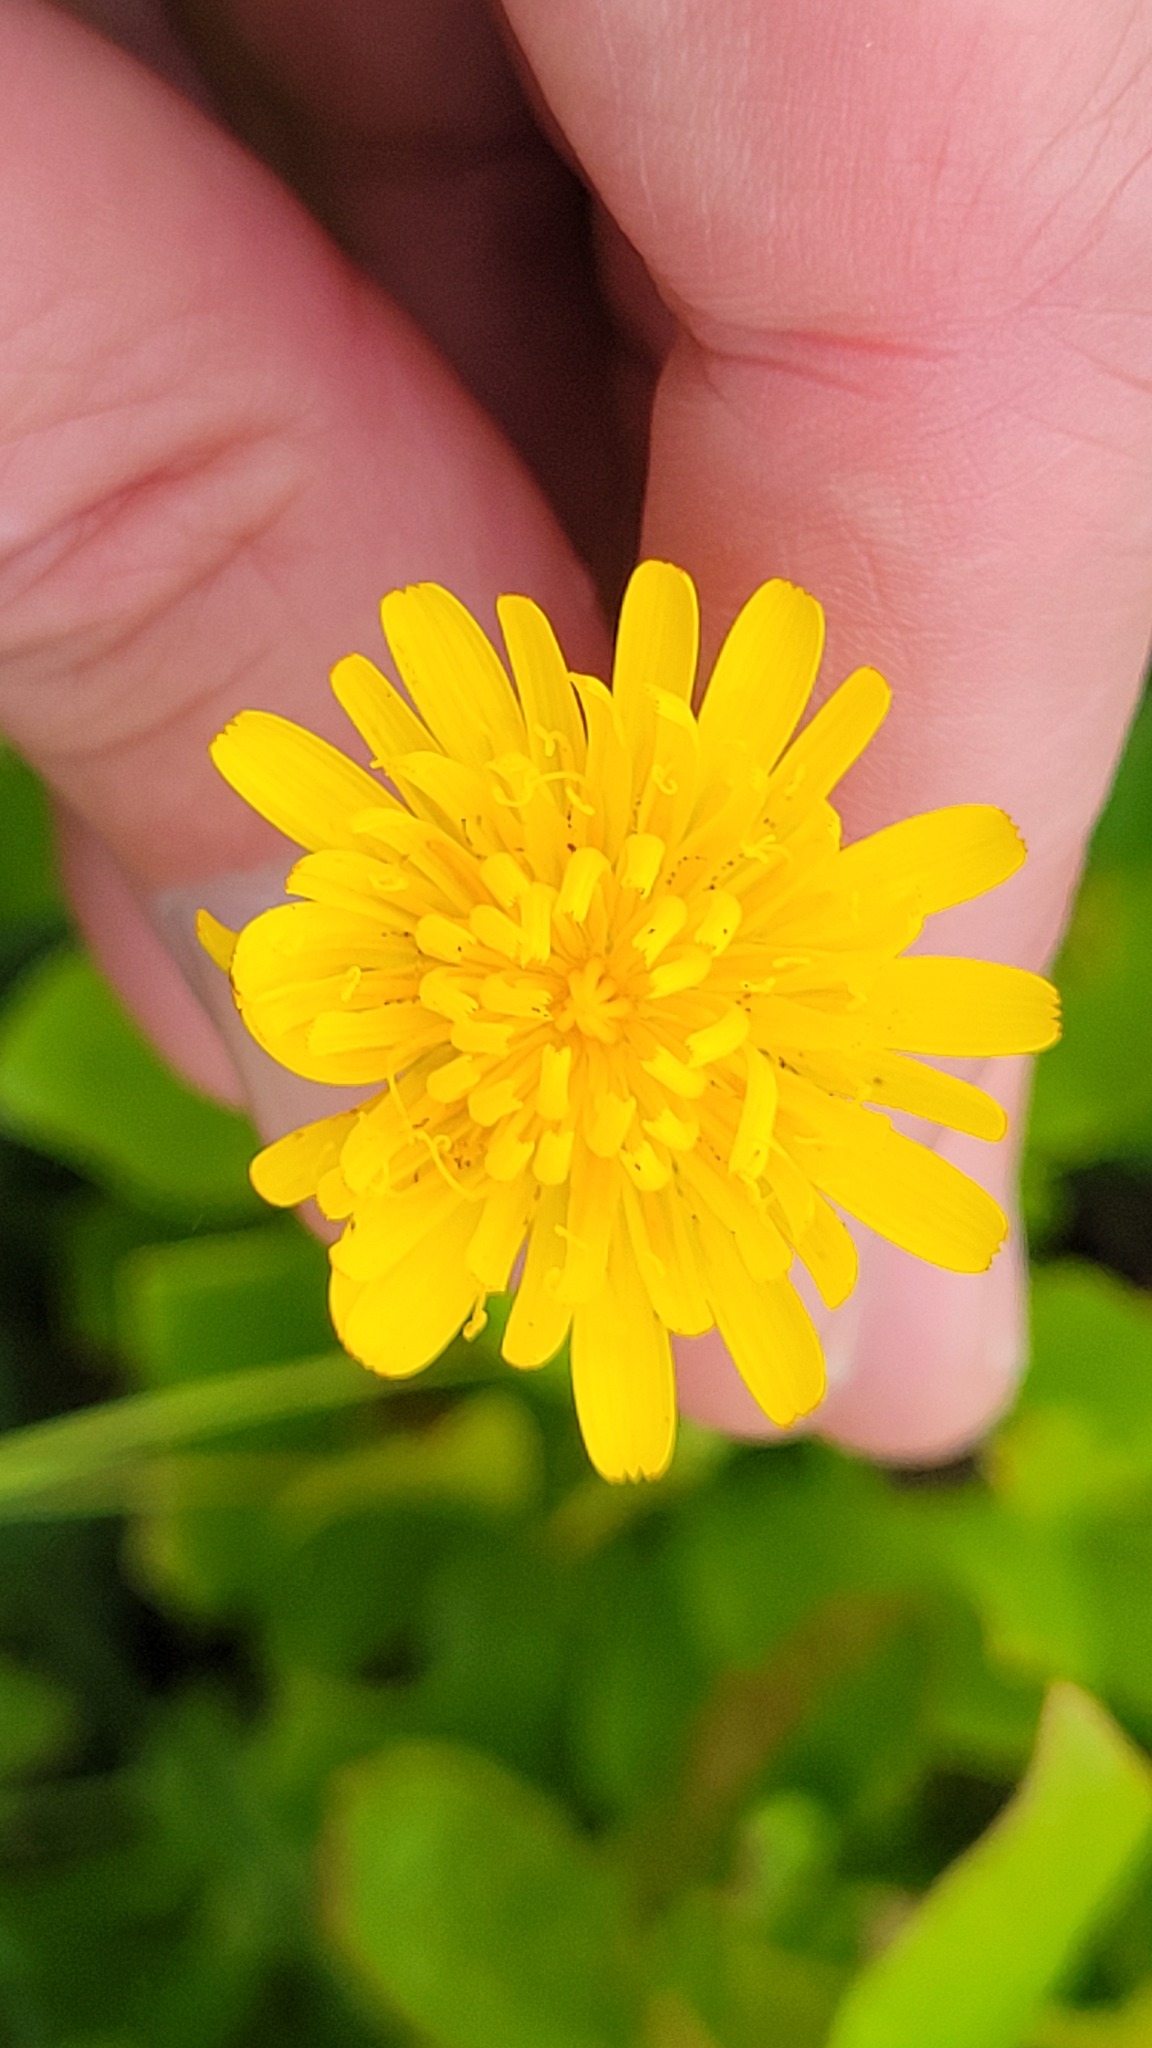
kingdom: Plantae
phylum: Tracheophyta
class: Magnoliopsida
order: Asterales
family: Asteraceae
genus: Hypochaeris
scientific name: Hypochaeris radicata
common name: Flatweed
